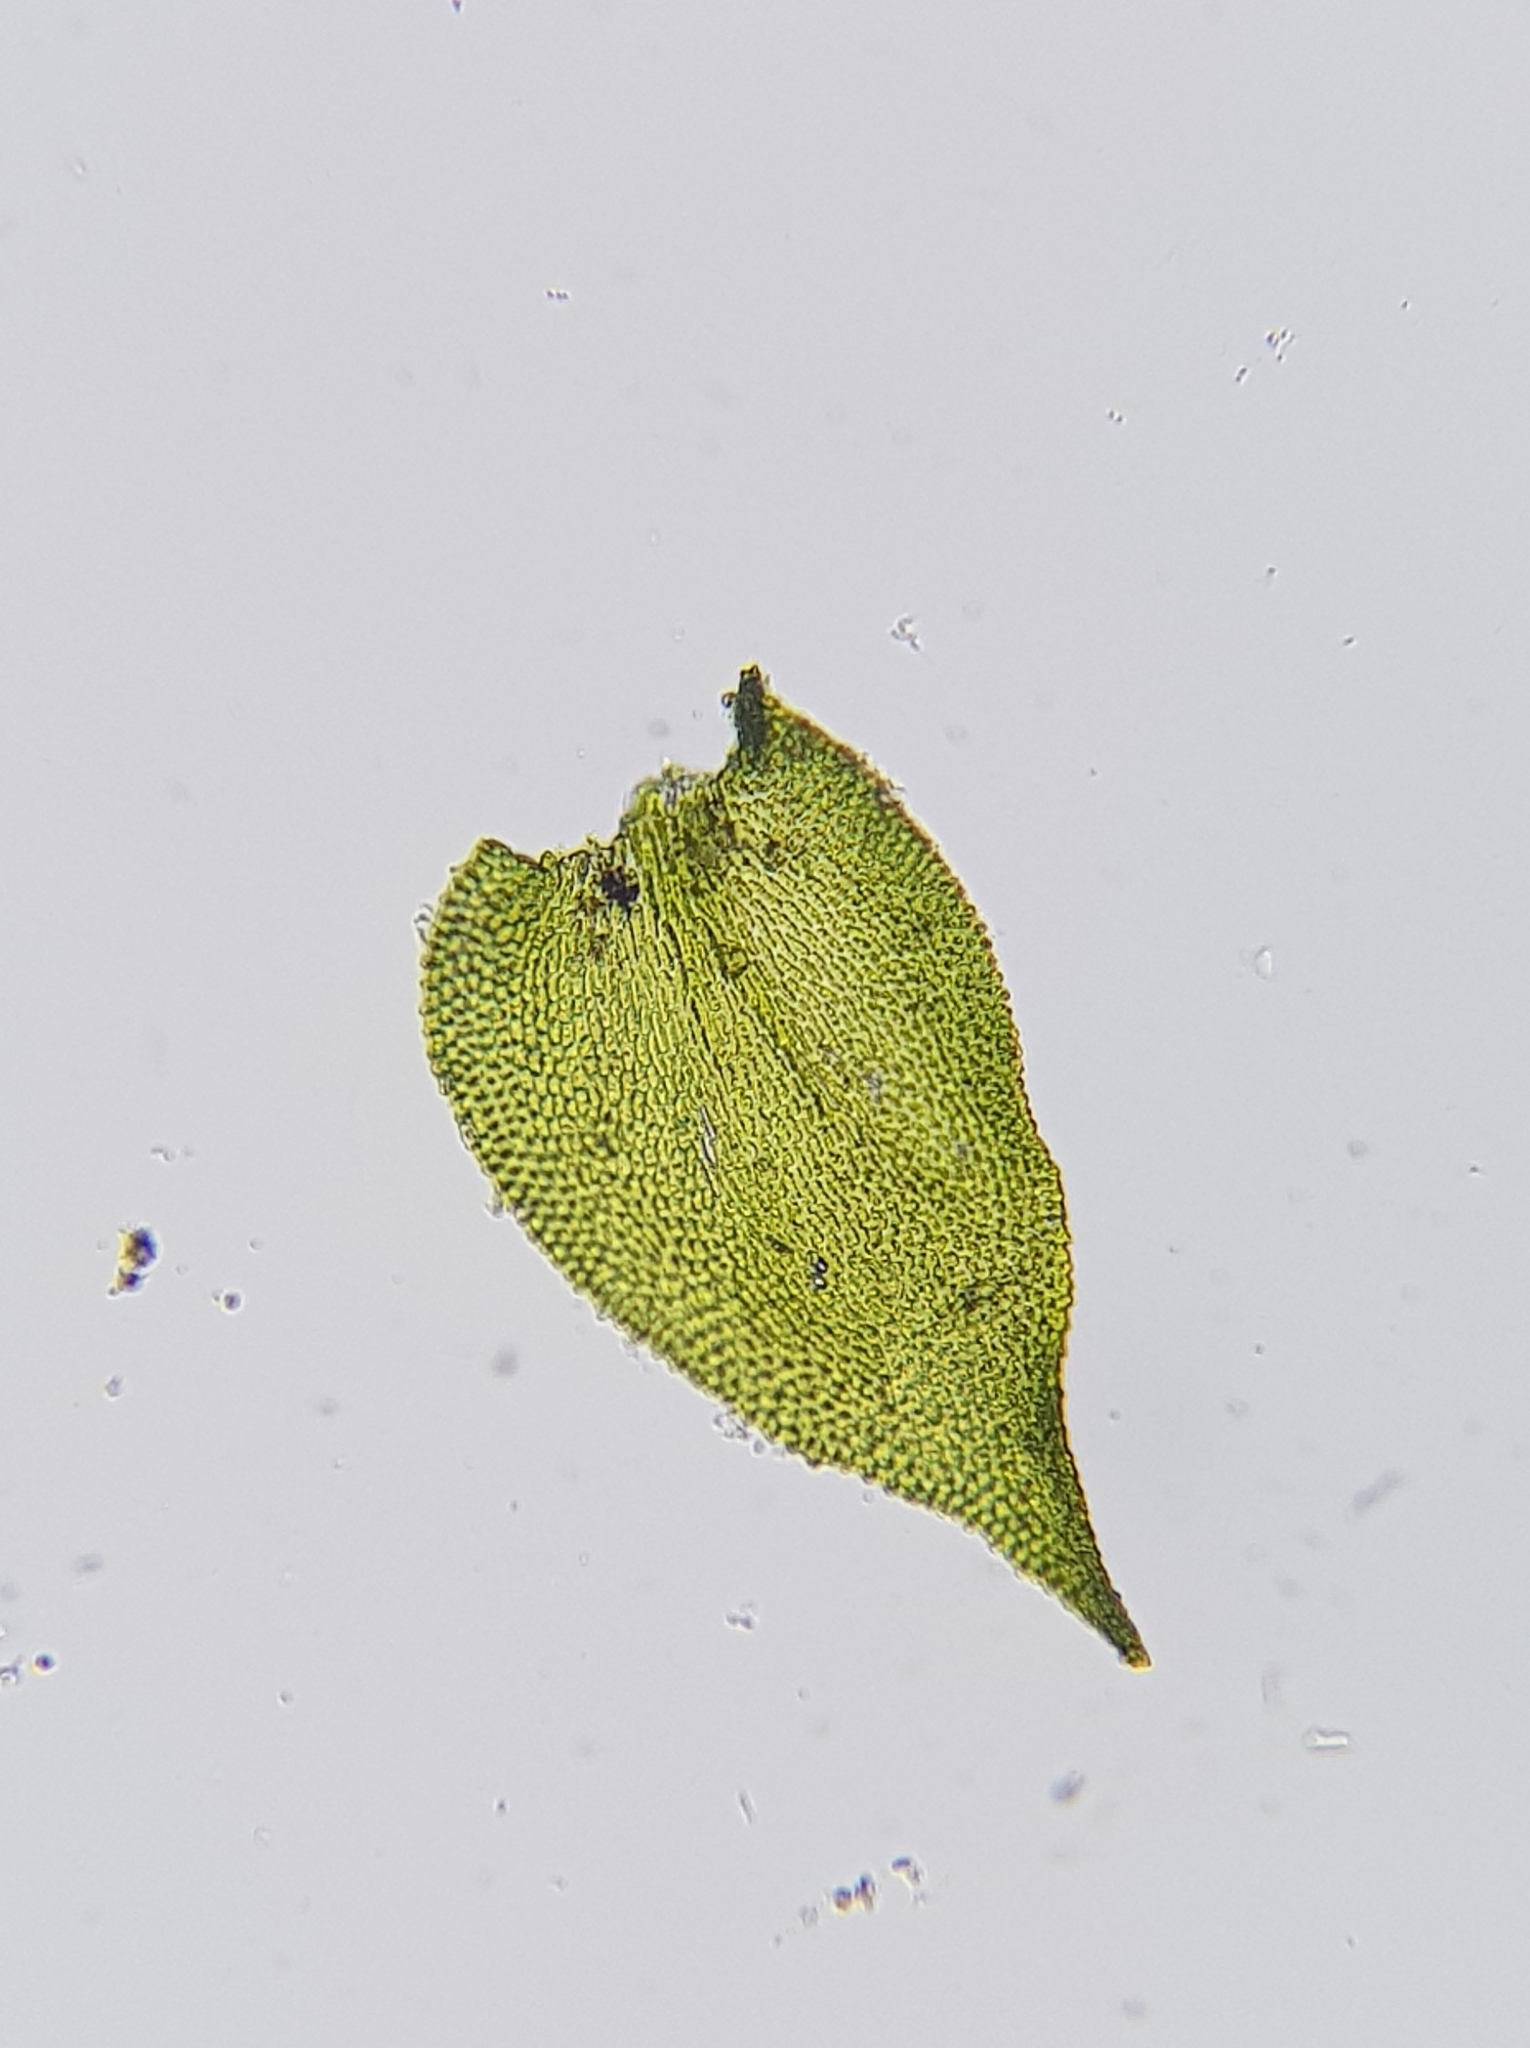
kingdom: Plantae
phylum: Bryophyta
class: Bryopsida
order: Hypnales
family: Lembophyllaceae
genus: Heterocladium
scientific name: Heterocladium heteropterum
